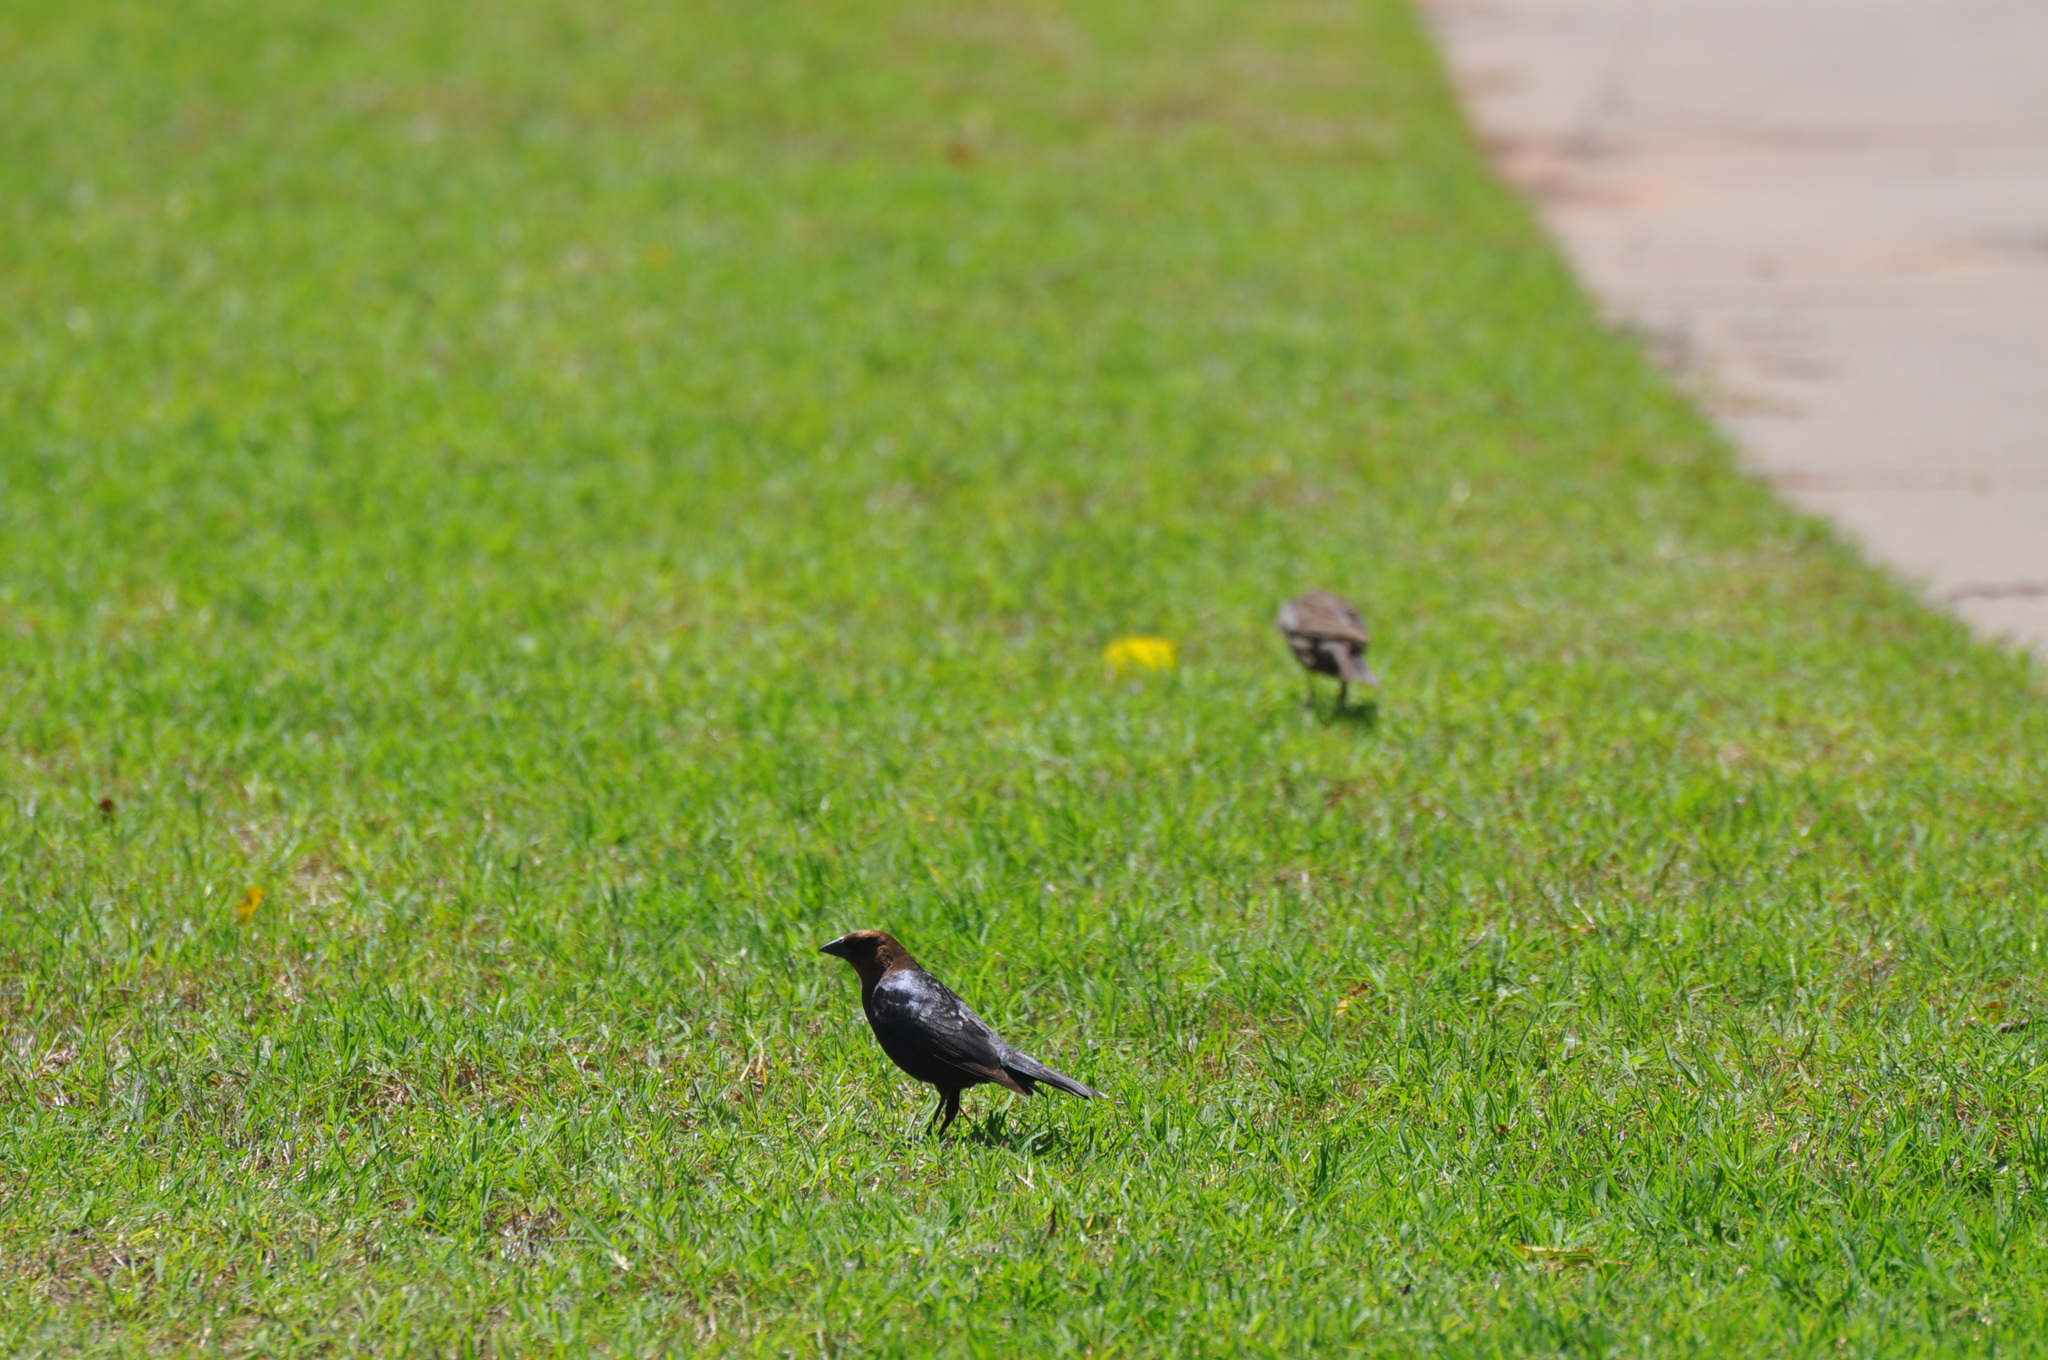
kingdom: Animalia
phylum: Chordata
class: Aves
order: Passeriformes
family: Icteridae
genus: Molothrus
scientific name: Molothrus ater
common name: Brown-headed cowbird
